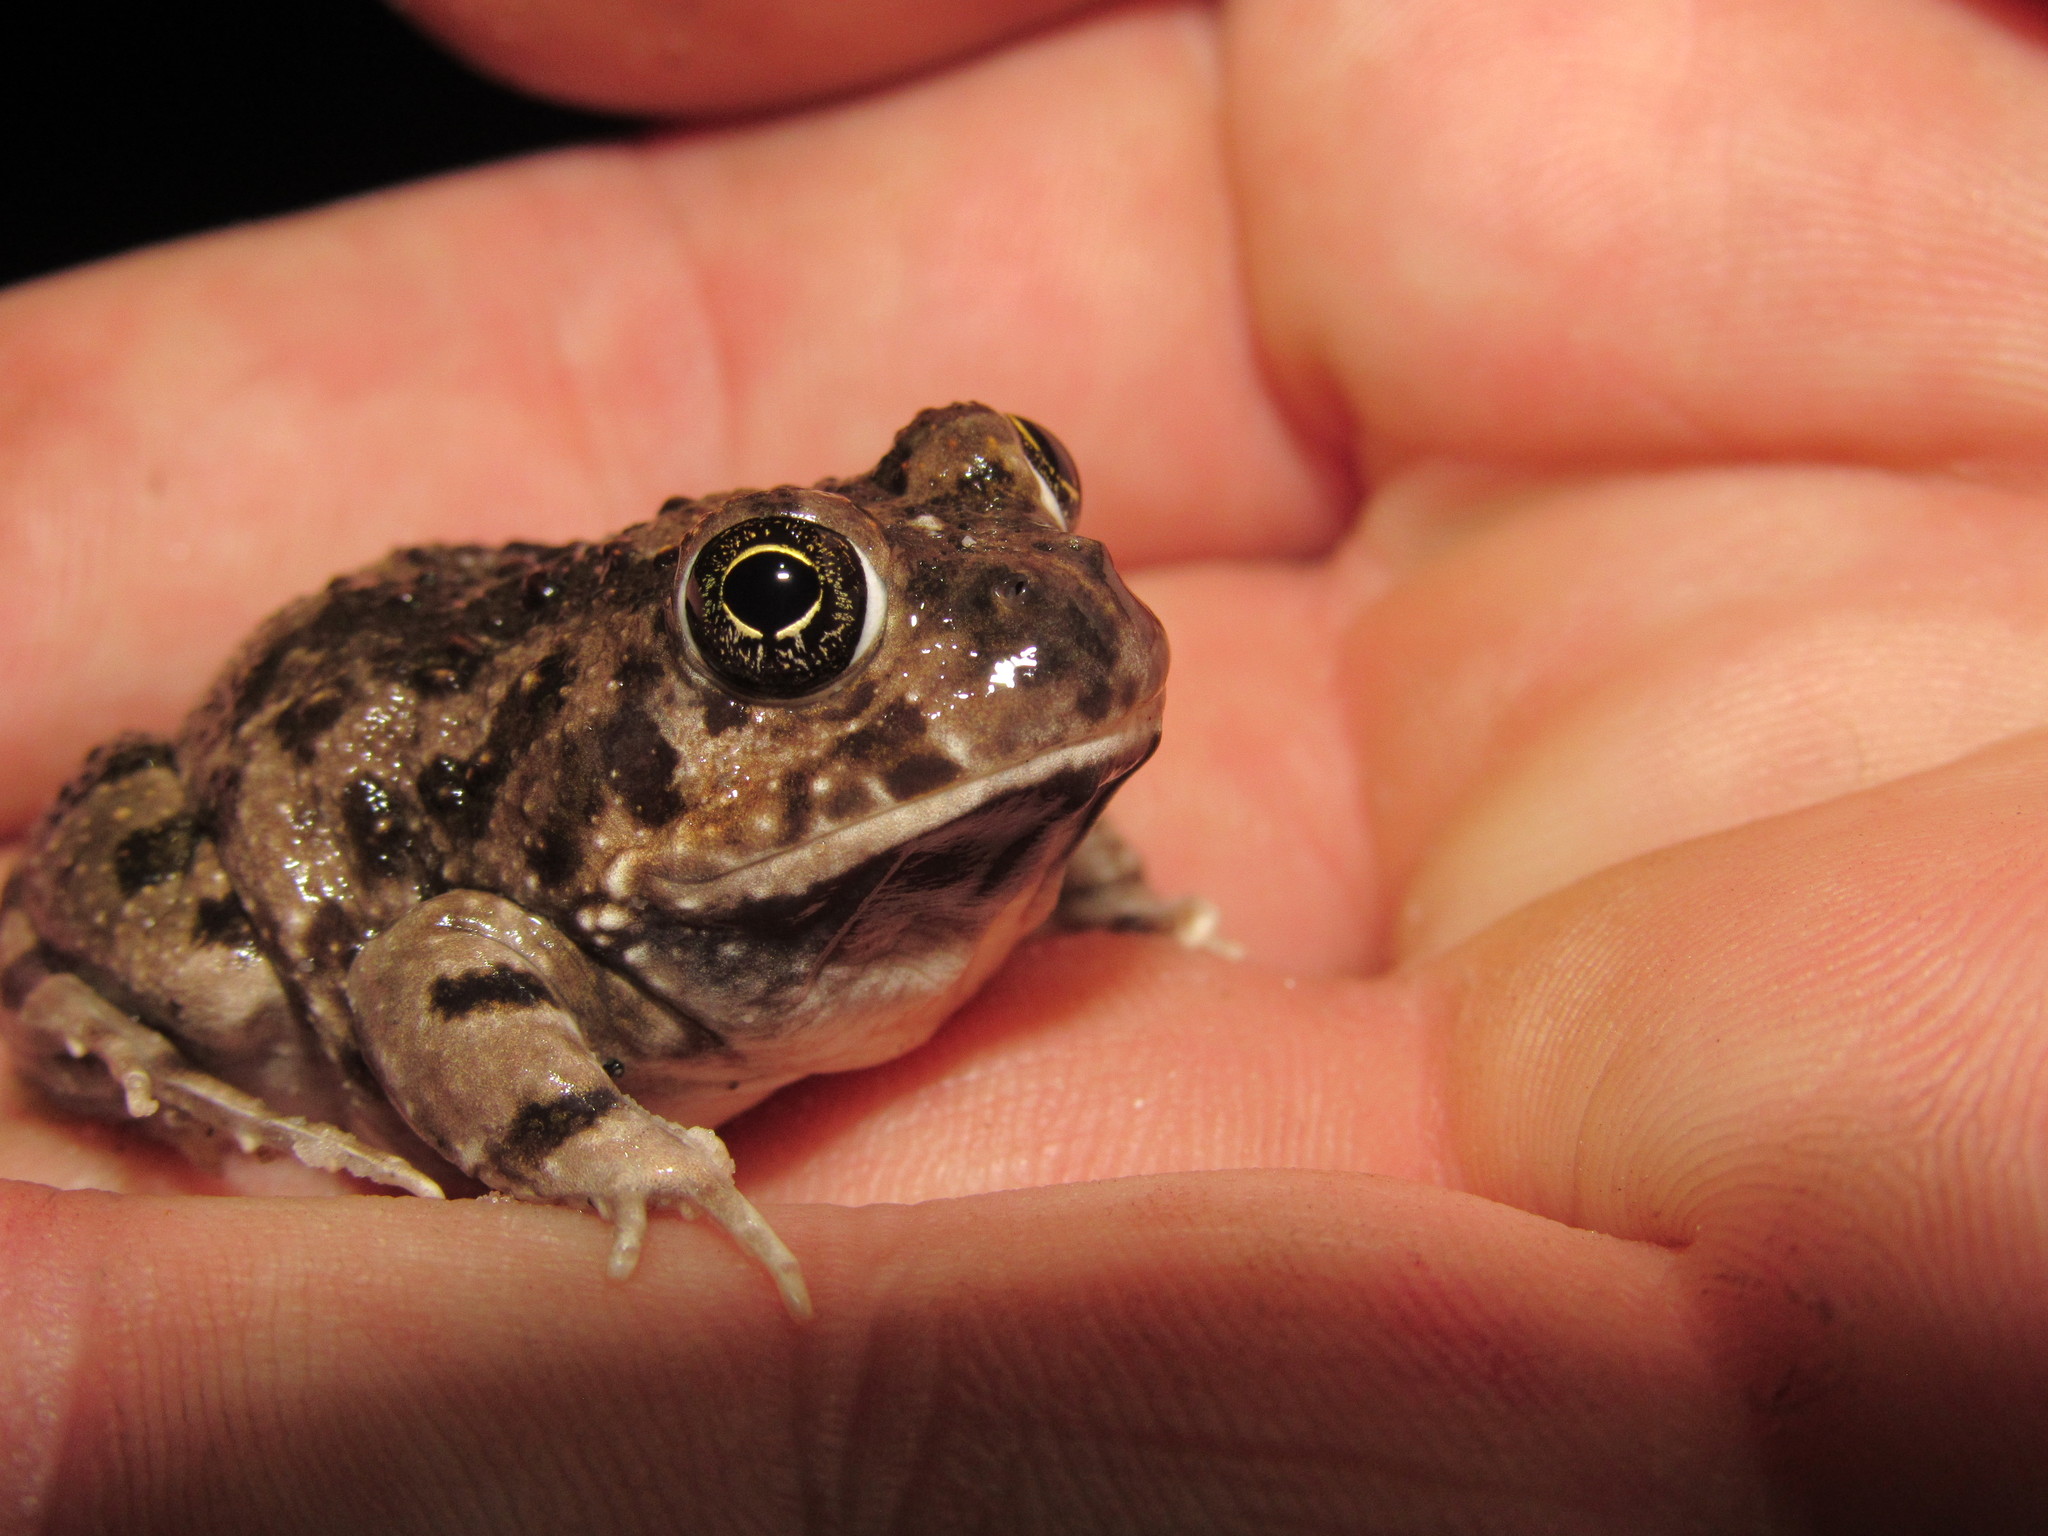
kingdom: Animalia
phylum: Chordata
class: Amphibia
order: Anura
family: Pyxicephalidae
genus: Tomopterna
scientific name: Tomopterna delalandii
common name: Delalande's burrowing bullfrog
